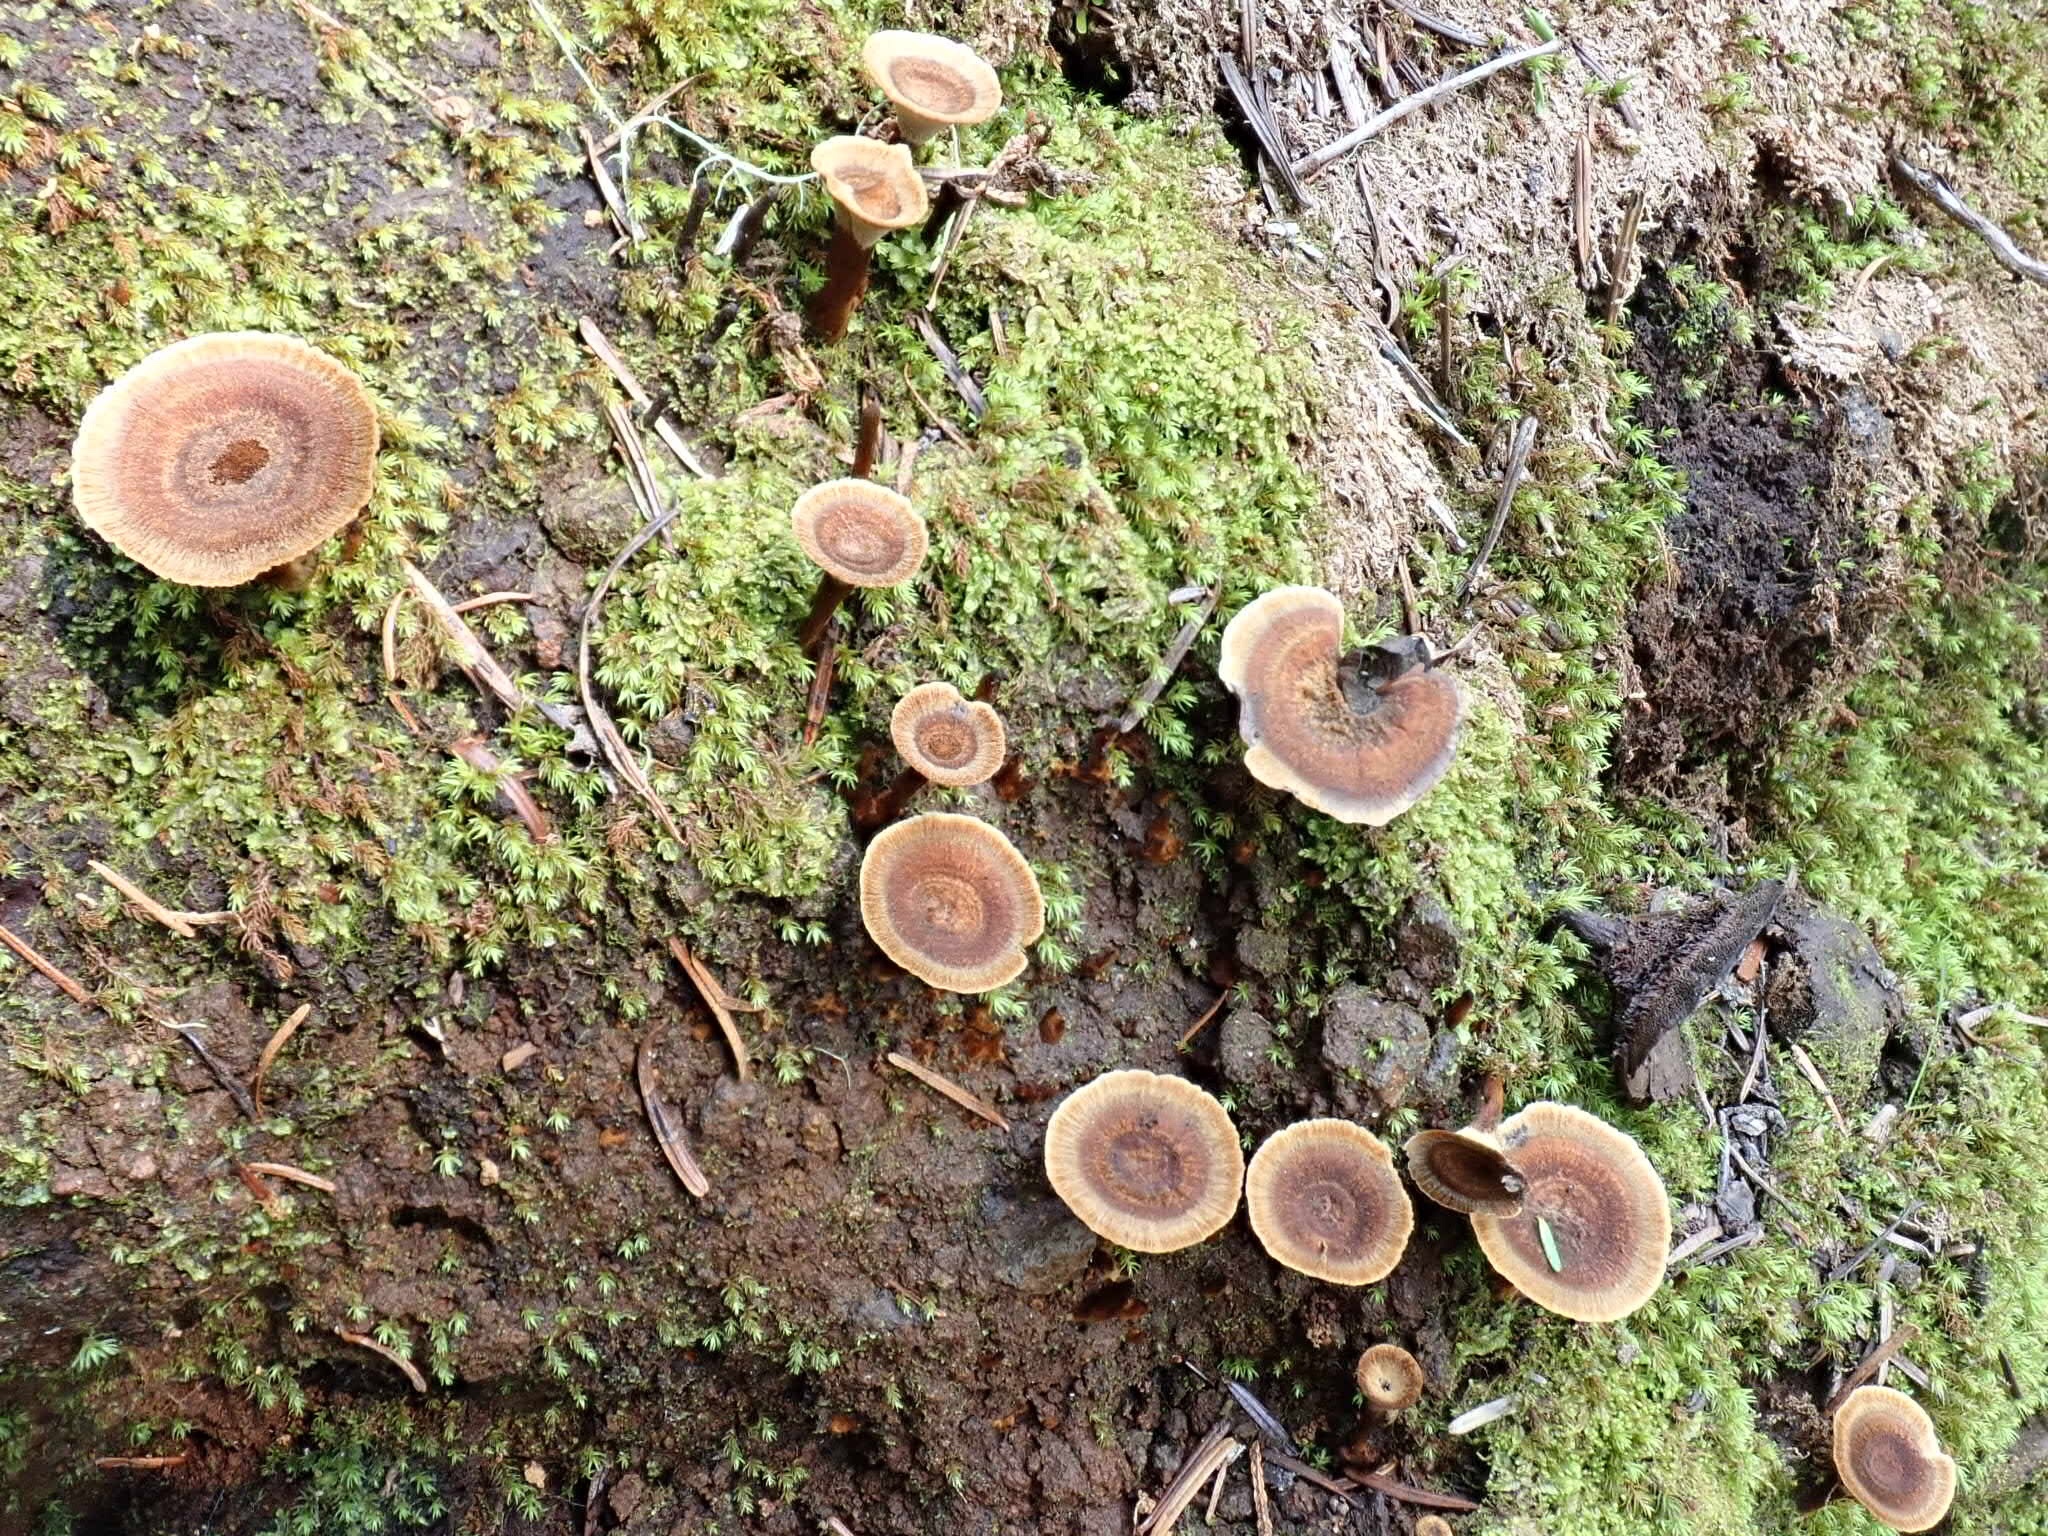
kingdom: Fungi
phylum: Basidiomycota
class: Agaricomycetes
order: Hymenochaetales
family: Hymenochaetaceae
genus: Coltricia
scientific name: Coltricia cinnamomea
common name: Shiny cinnamon polypore
